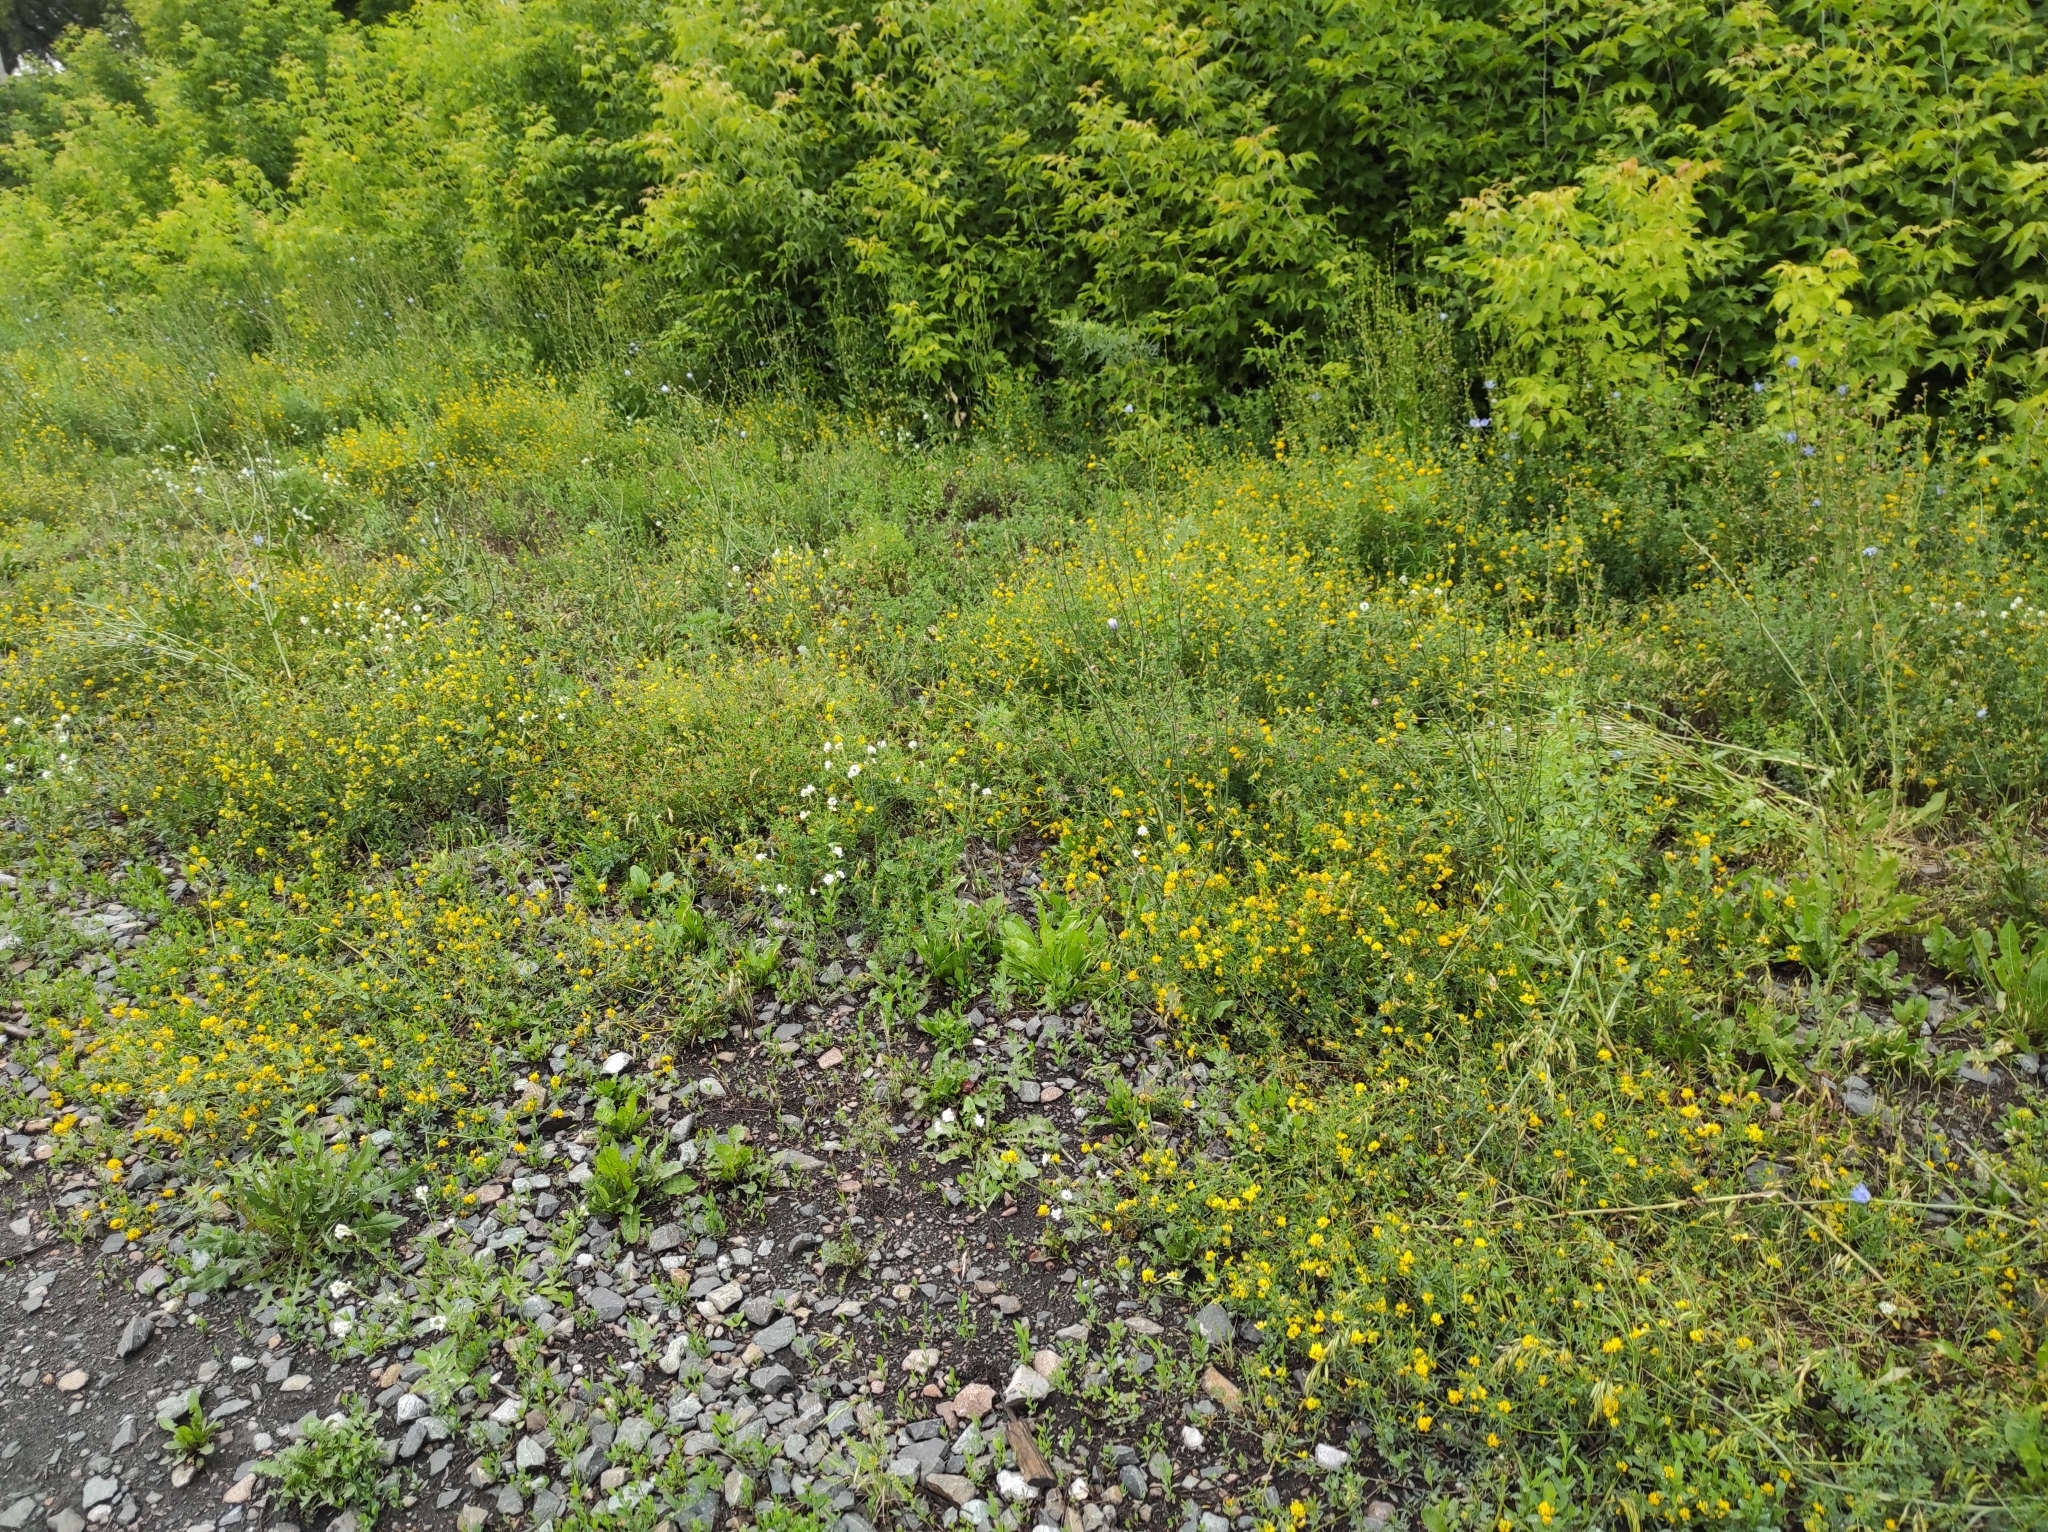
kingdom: Plantae
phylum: Tracheophyta
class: Magnoliopsida
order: Fabales
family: Fabaceae
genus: Medicago
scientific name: Medicago falcata
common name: Sickle medick
